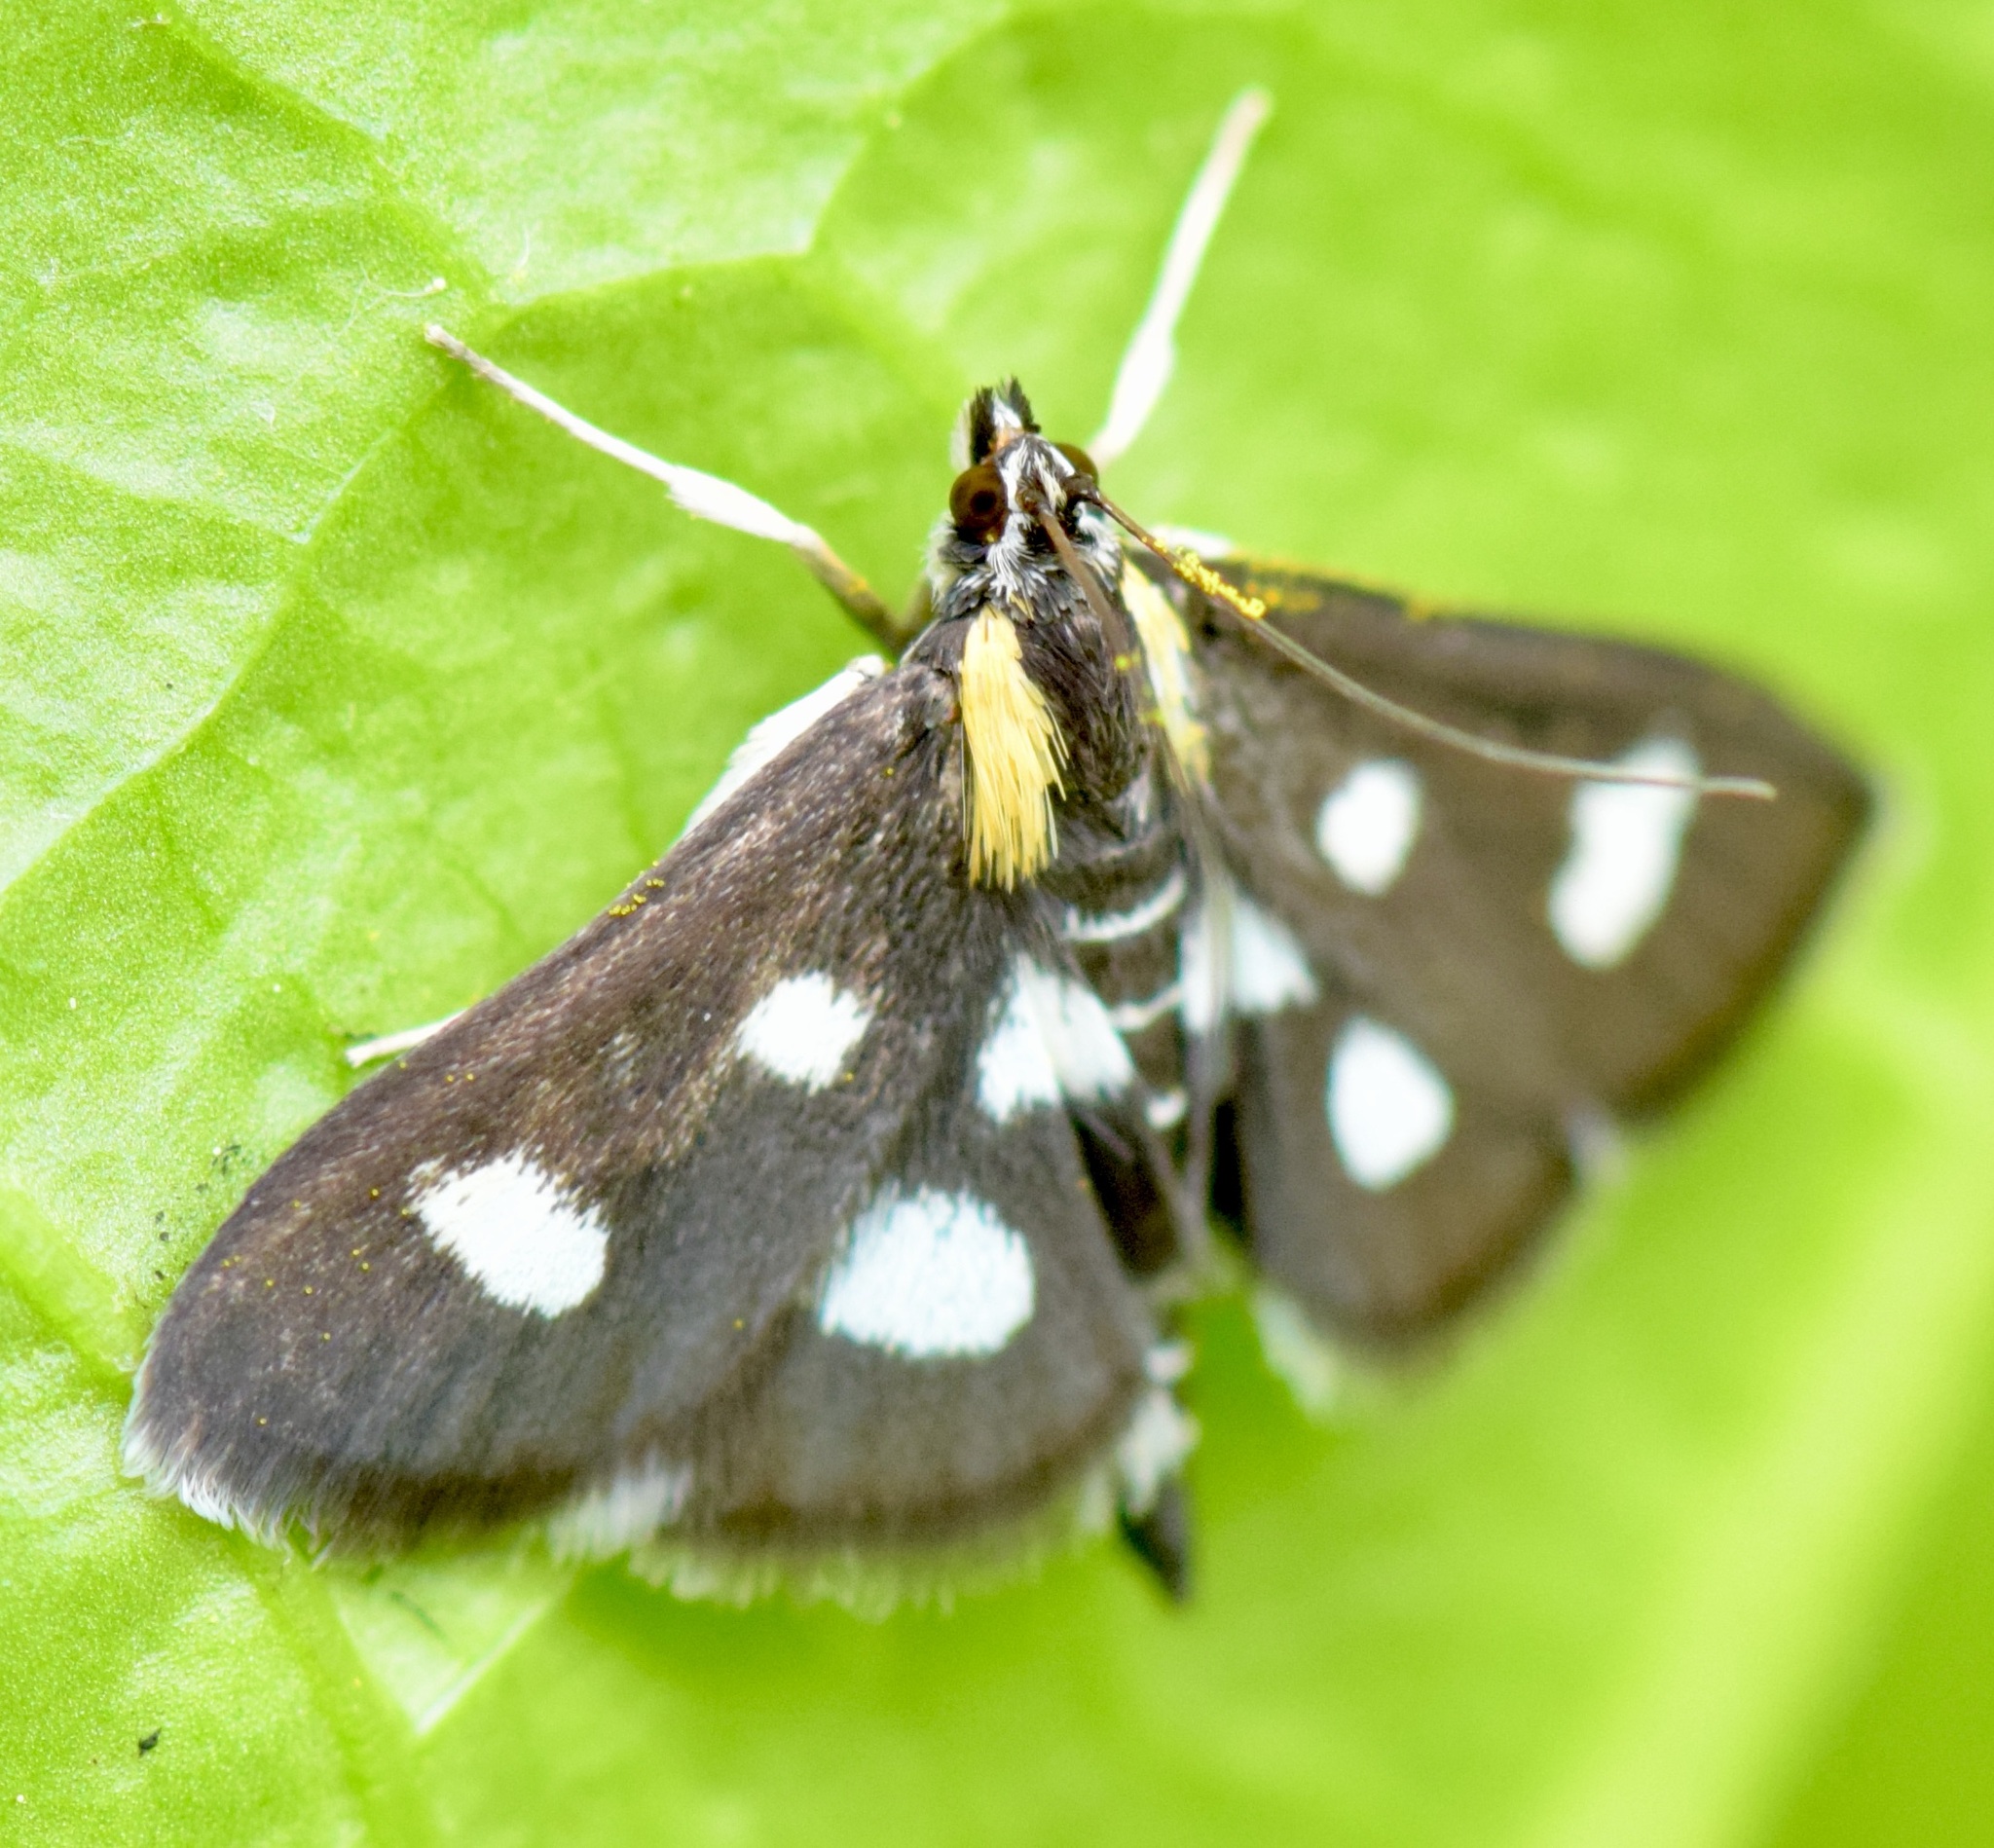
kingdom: Animalia
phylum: Arthropoda
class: Insecta
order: Lepidoptera
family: Crambidae
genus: Anania
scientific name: Anania funebris
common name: White-spotted sable moth
